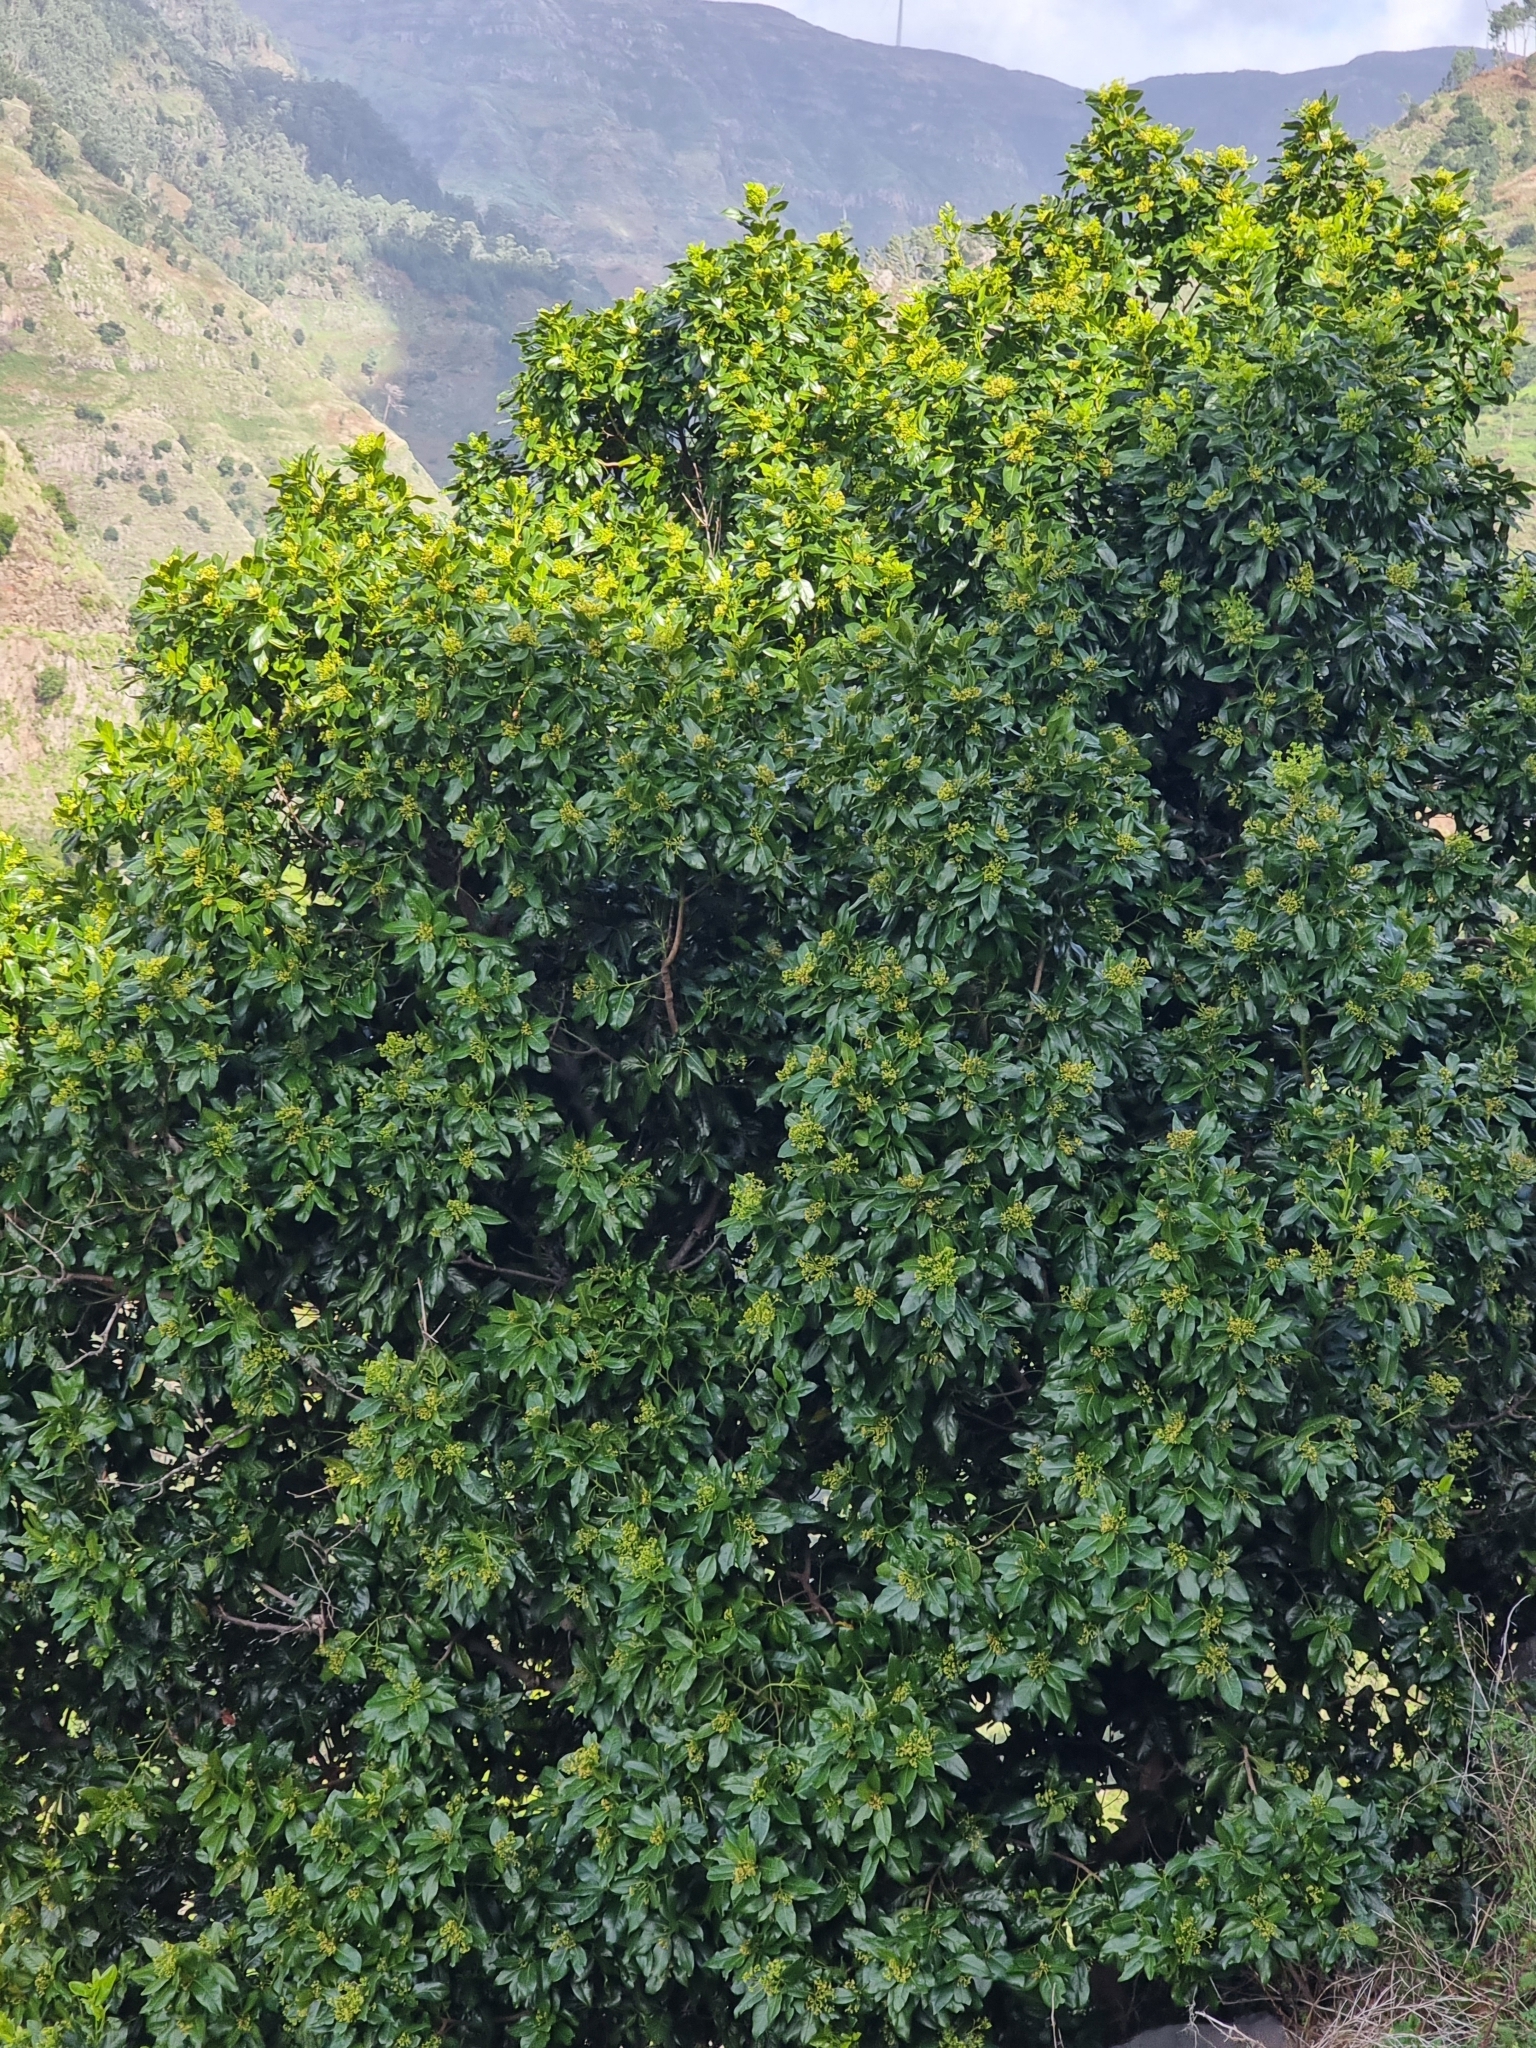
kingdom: Plantae
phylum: Tracheophyta
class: Magnoliopsida
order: Laurales
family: Lauraceae
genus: Apollonias
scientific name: Apollonias barbujana
